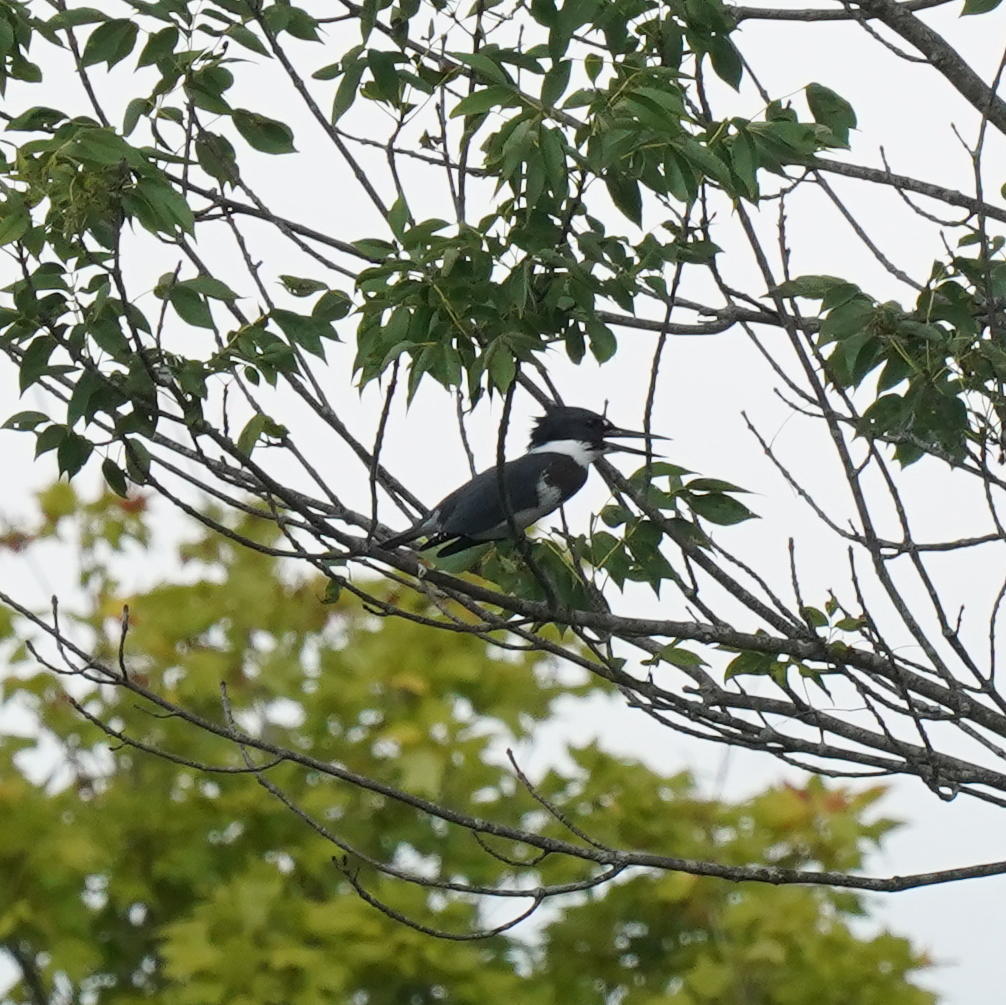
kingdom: Animalia
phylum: Chordata
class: Aves
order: Coraciiformes
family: Alcedinidae
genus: Megaceryle
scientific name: Megaceryle alcyon
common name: Belted kingfisher
